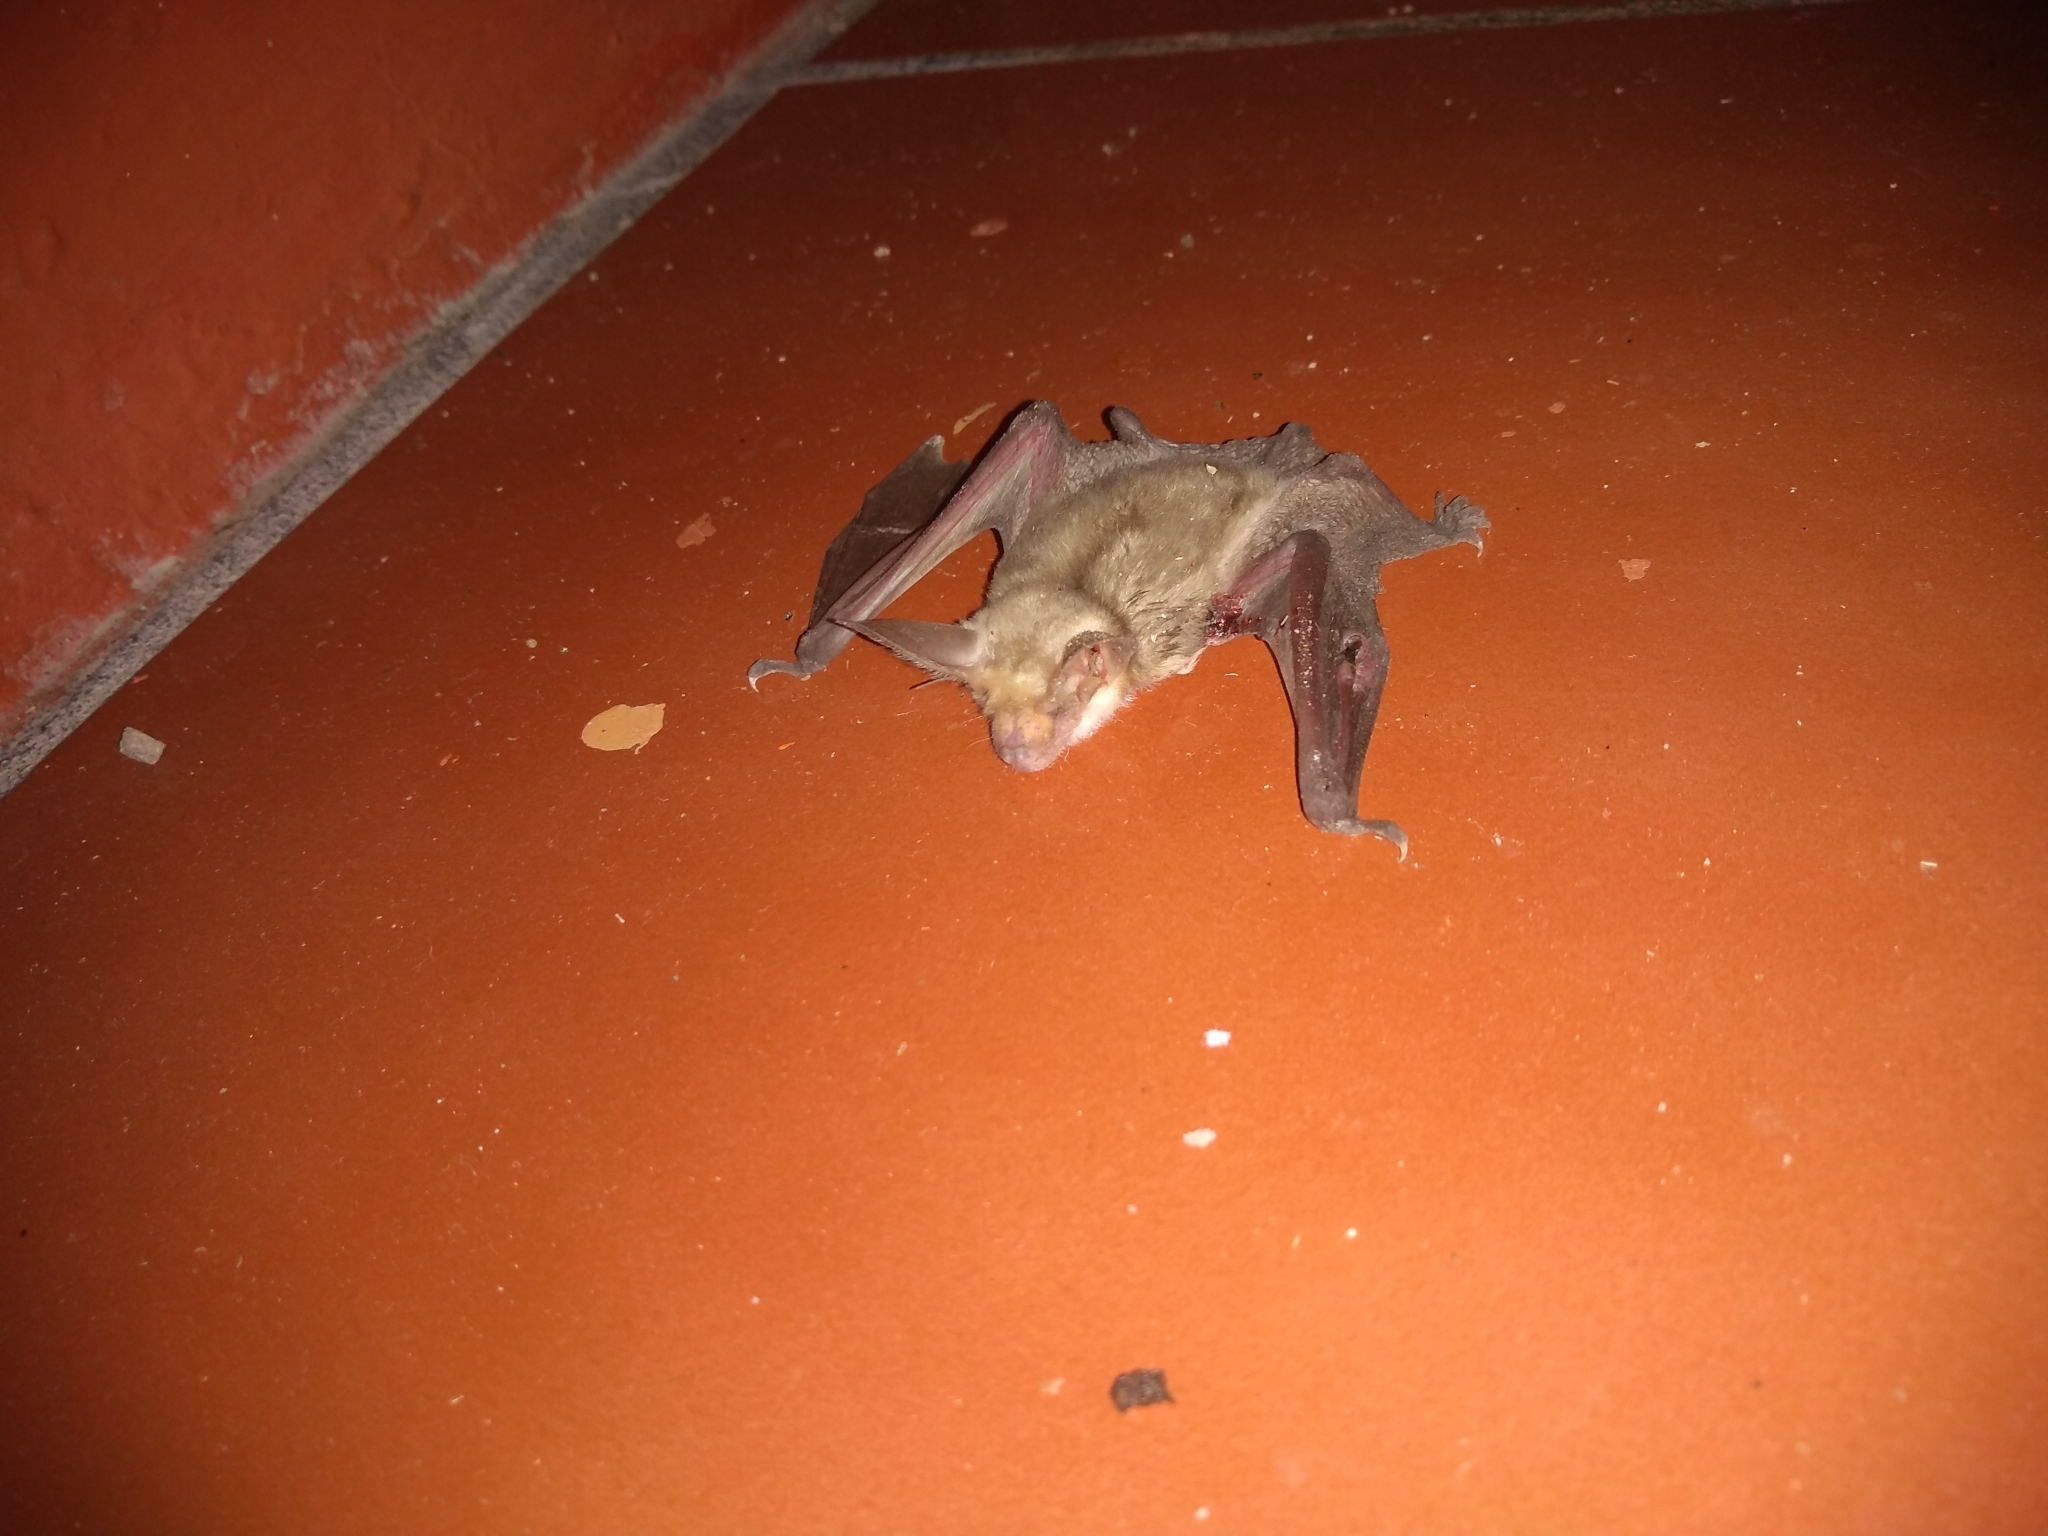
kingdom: Animalia
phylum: Chordata
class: Mammalia
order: Chiroptera
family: Vespertilionidae
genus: Antrozous
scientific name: Antrozous pallidus
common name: Pallid bat
